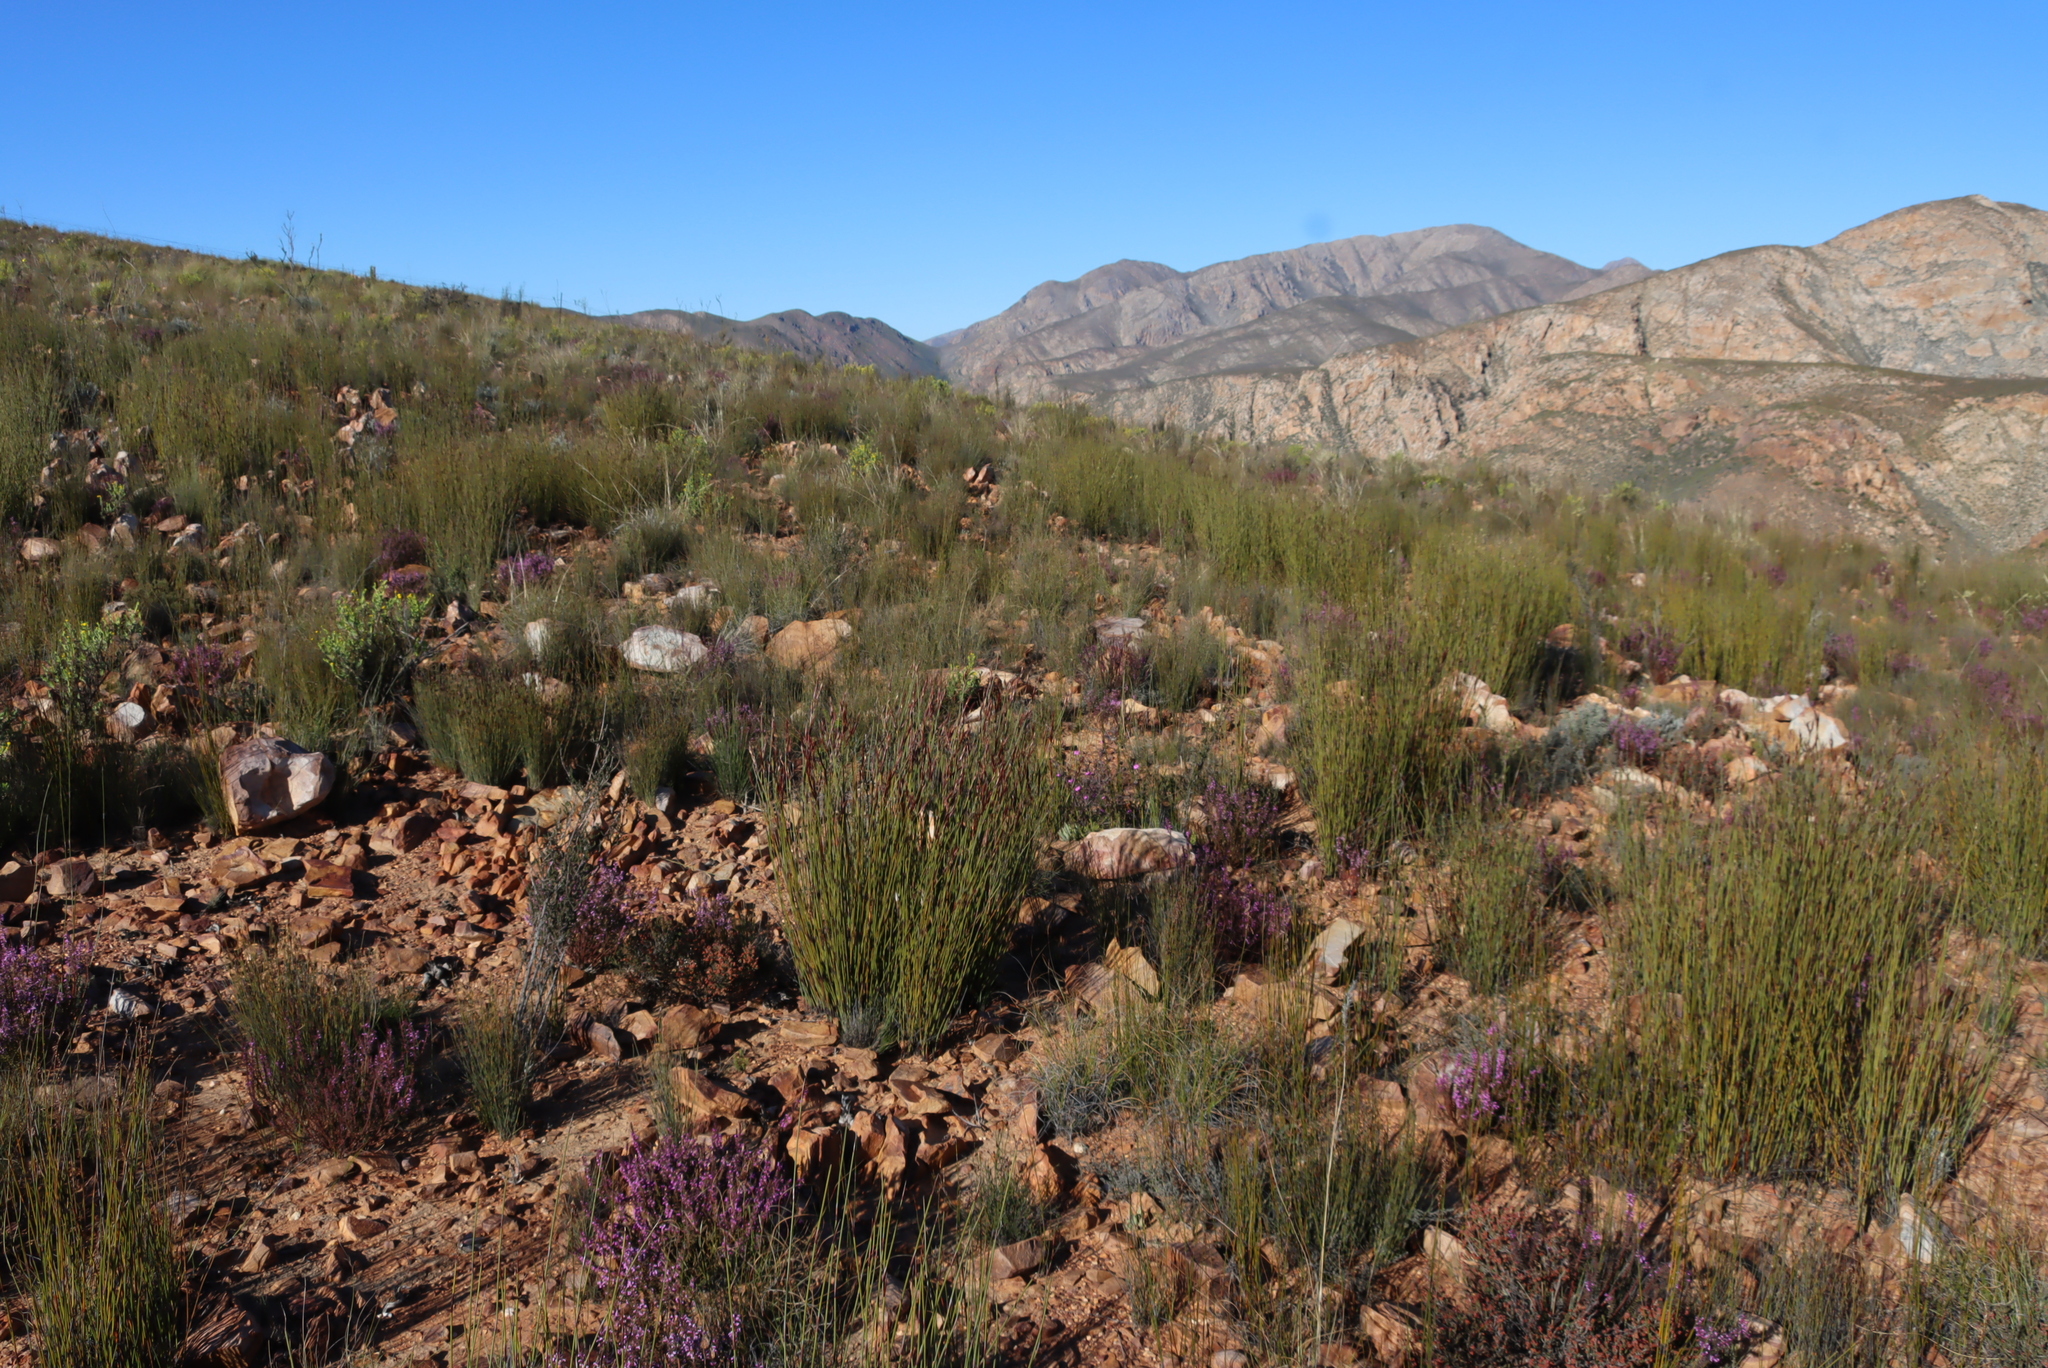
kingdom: Plantae
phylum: Tracheophyta
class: Liliopsida
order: Poales
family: Restionaceae
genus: Cannomois
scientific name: Cannomois scirpoides
